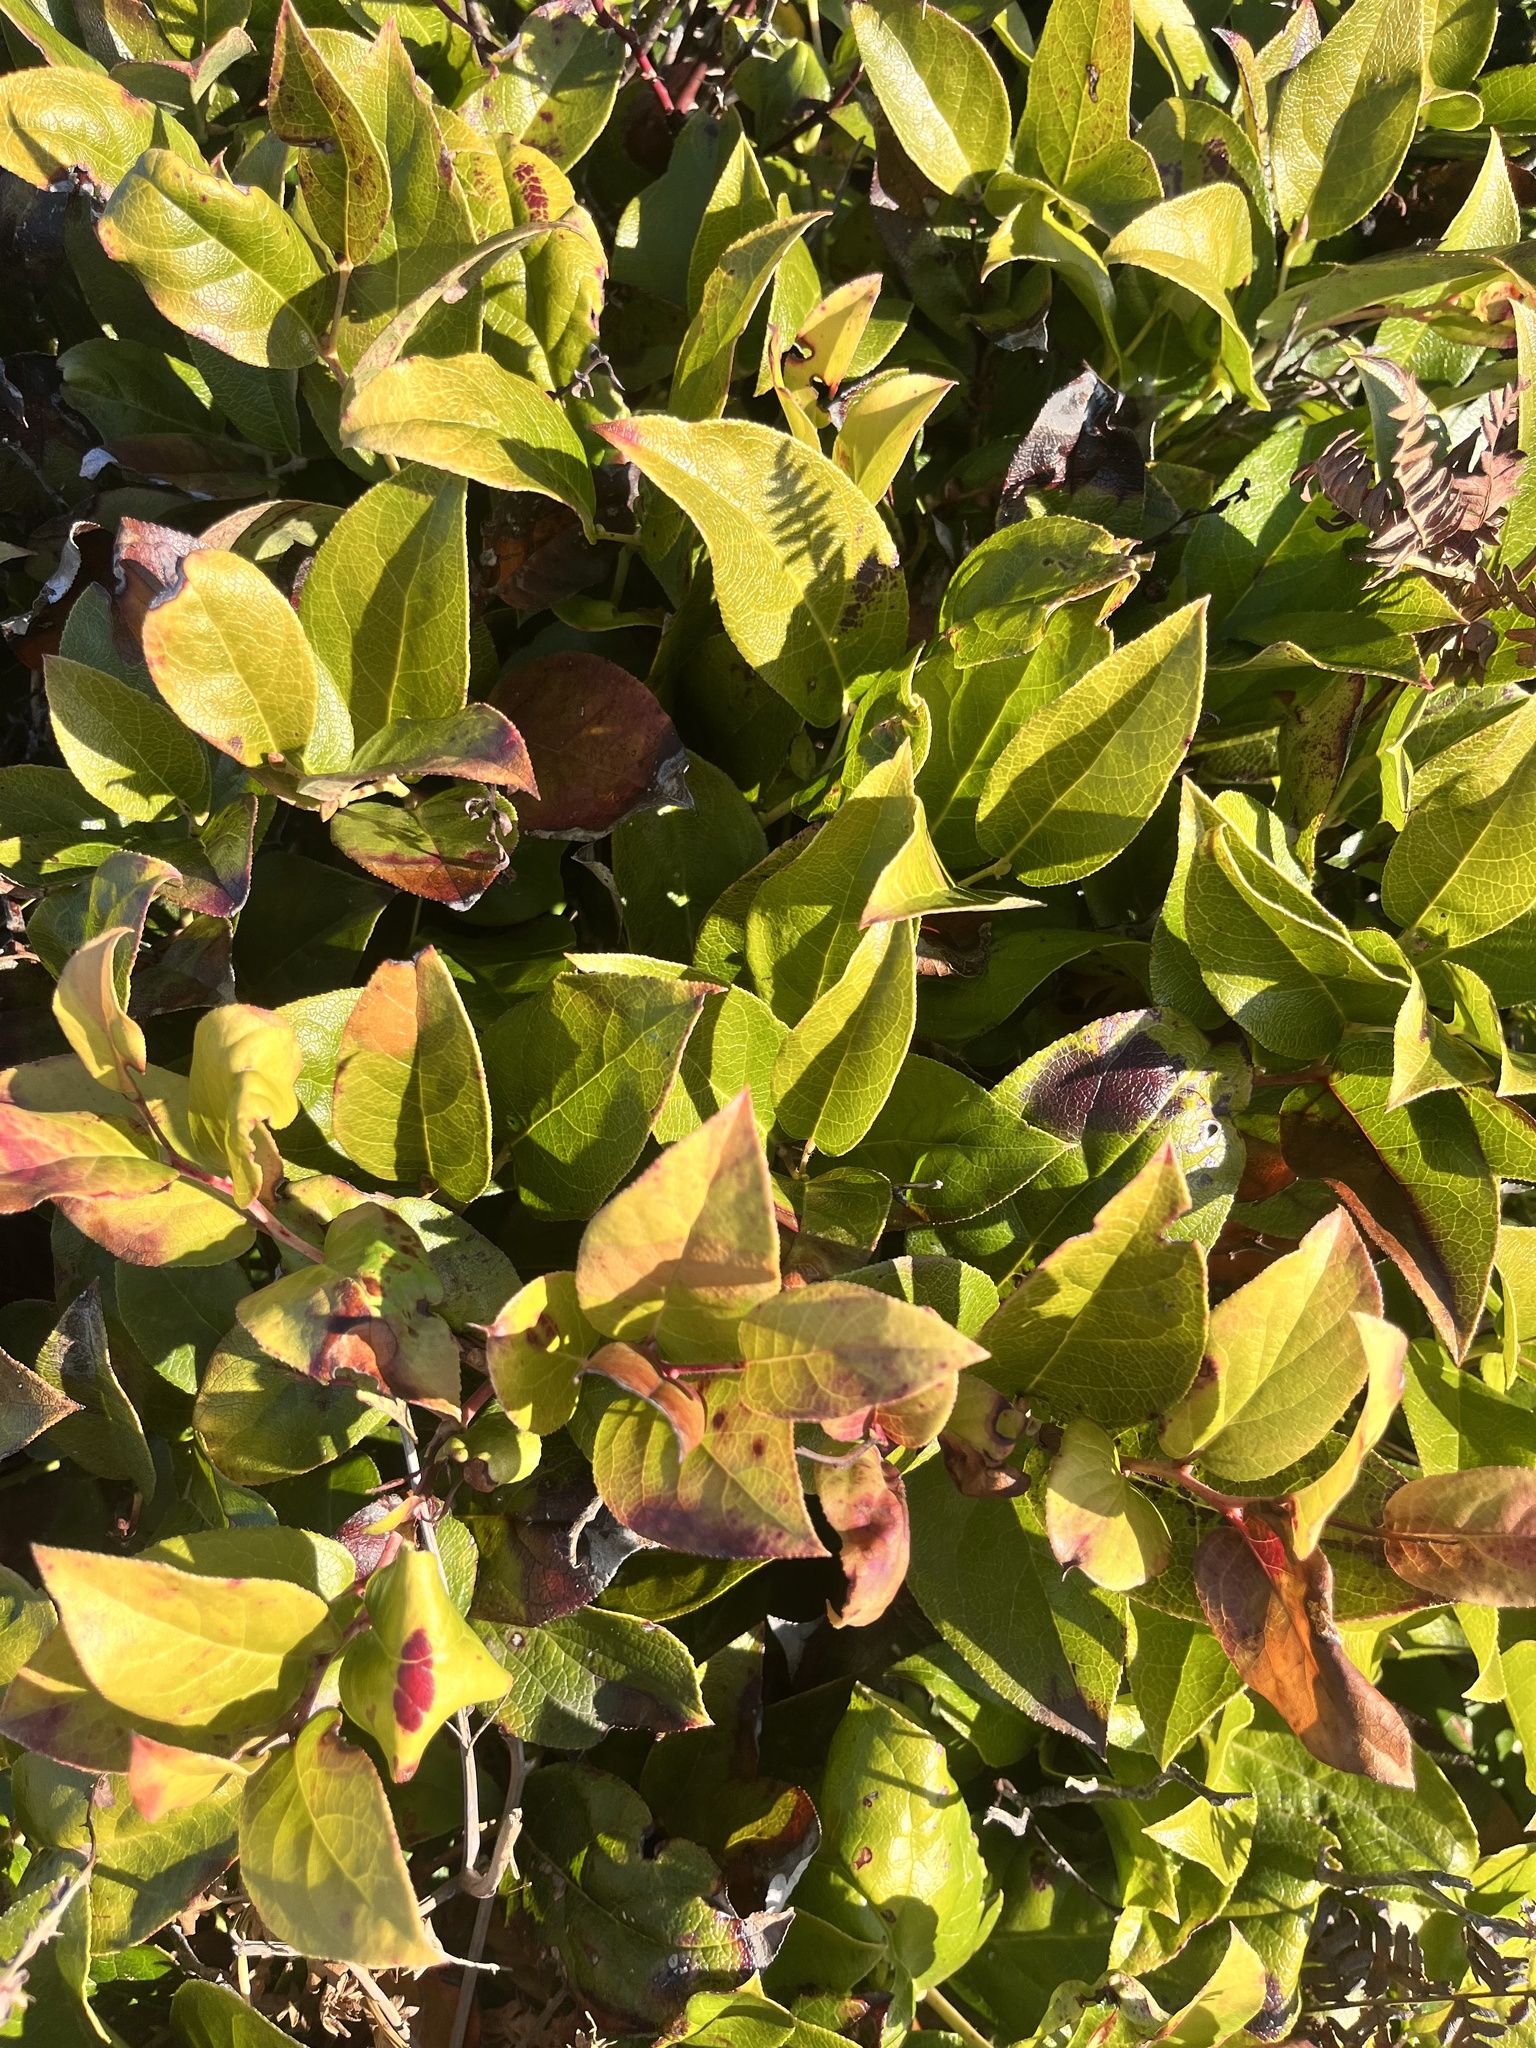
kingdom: Plantae
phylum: Tracheophyta
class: Magnoliopsida
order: Ericales
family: Ericaceae
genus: Gaultheria
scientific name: Gaultheria shallon
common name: Shallon
